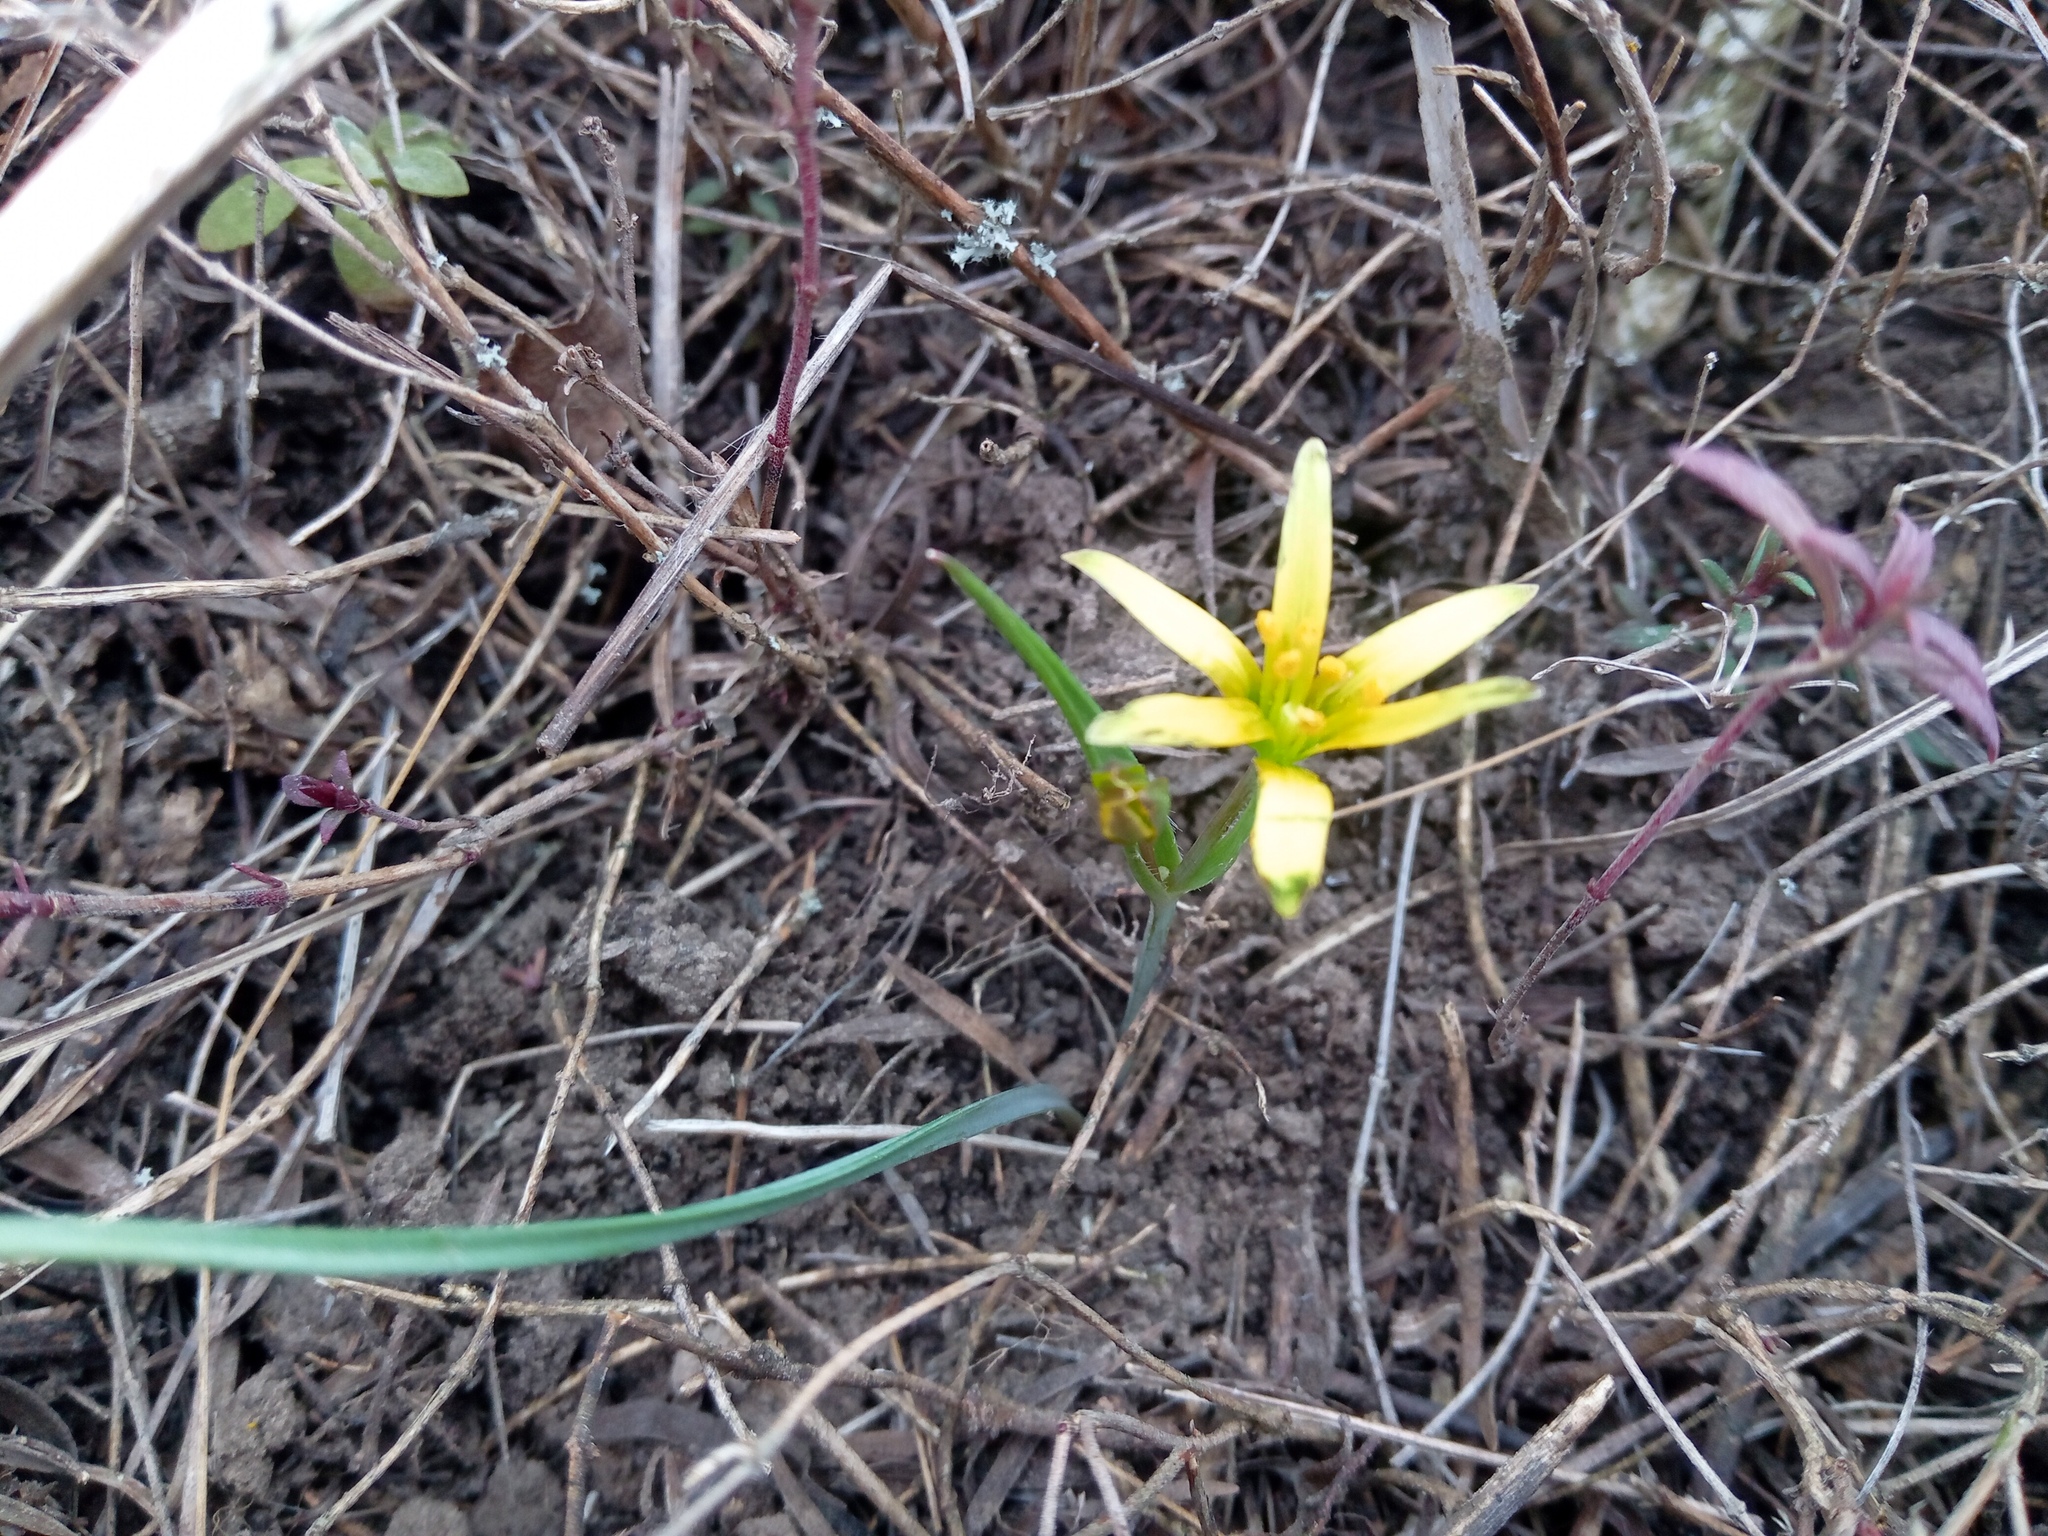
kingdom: Plantae
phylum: Tracheophyta
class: Liliopsida
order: Liliales
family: Liliaceae
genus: Gagea
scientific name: Gagea pusilla
